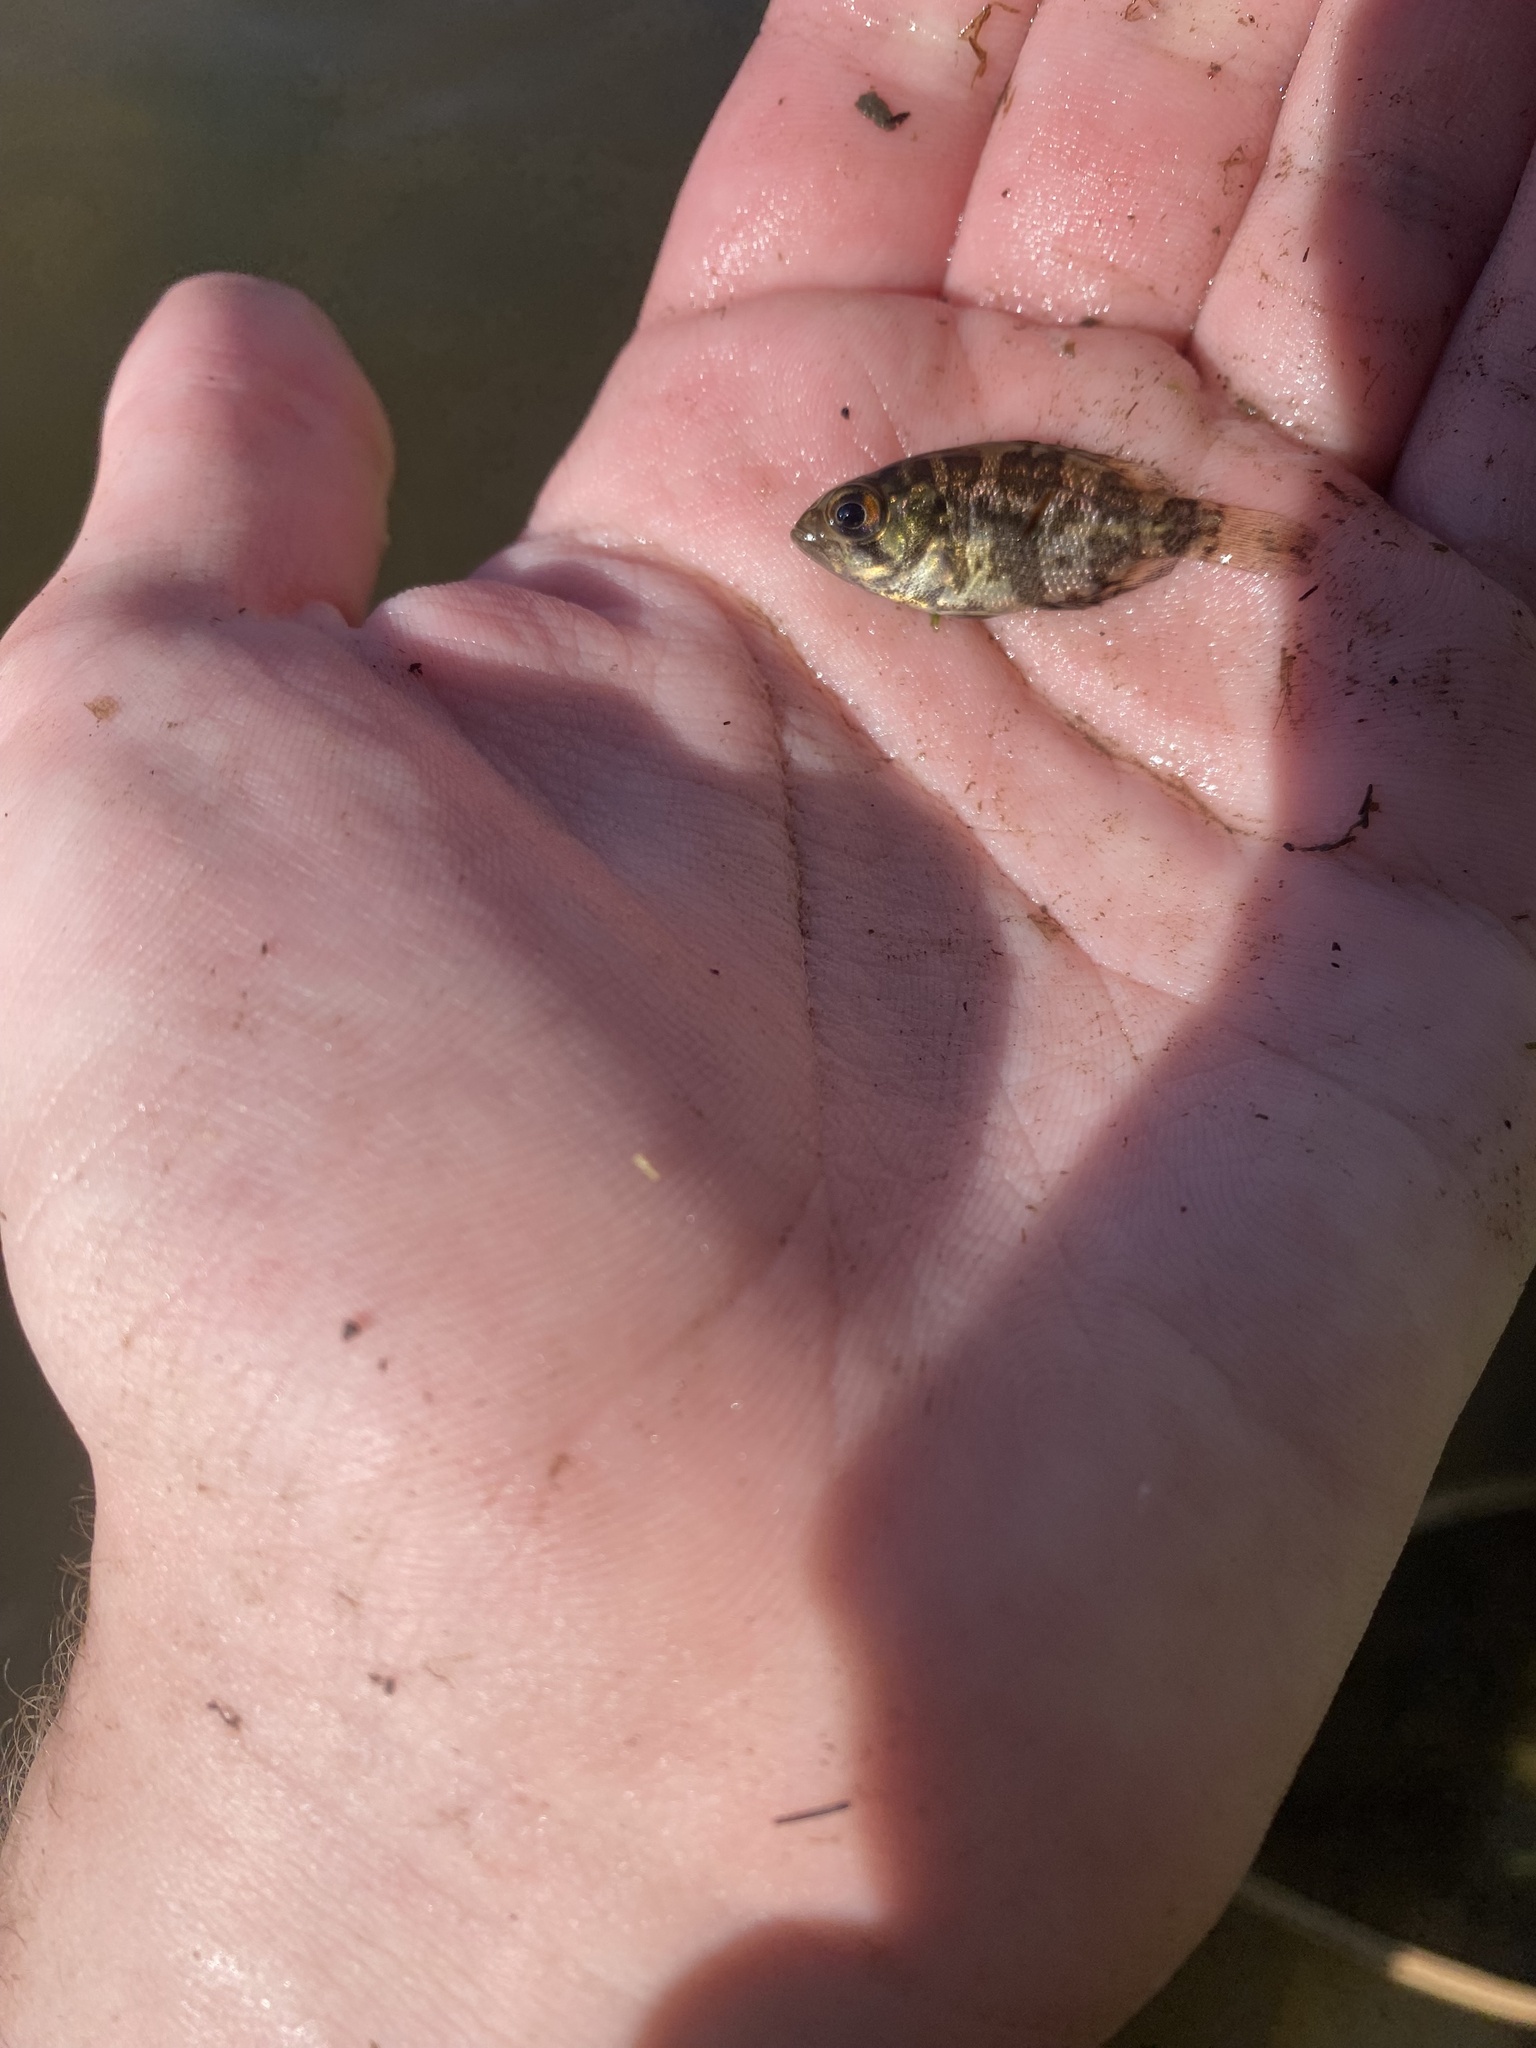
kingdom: Animalia
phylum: Chordata
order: Perciformes
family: Centrarchidae
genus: Ambloplites
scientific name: Ambloplites rupestris
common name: Rock bass
